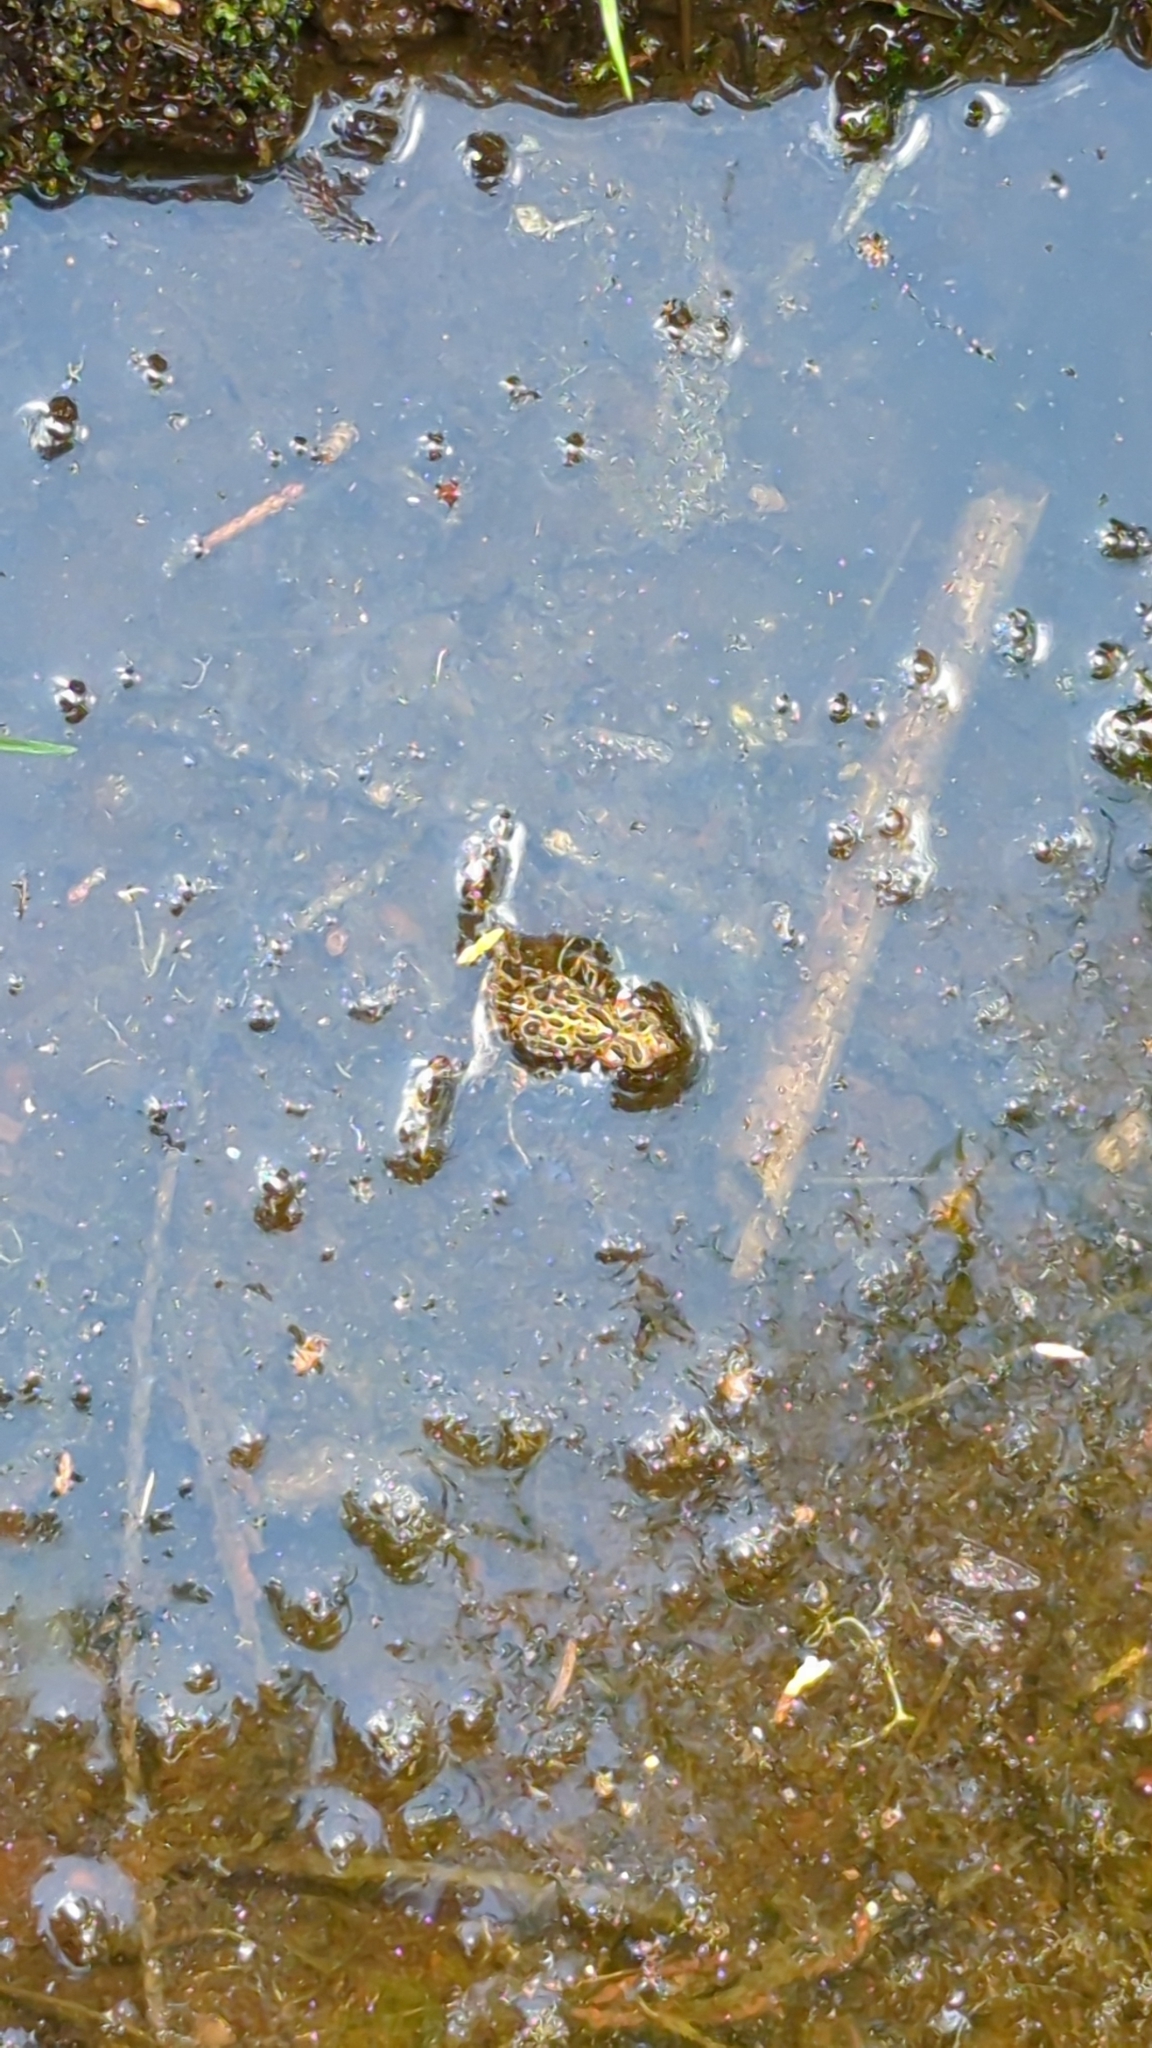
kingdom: Animalia
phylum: Chordata
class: Amphibia
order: Anura
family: Bufonidae
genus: Anaxyrus
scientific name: Anaxyrus boreas
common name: Western toad
